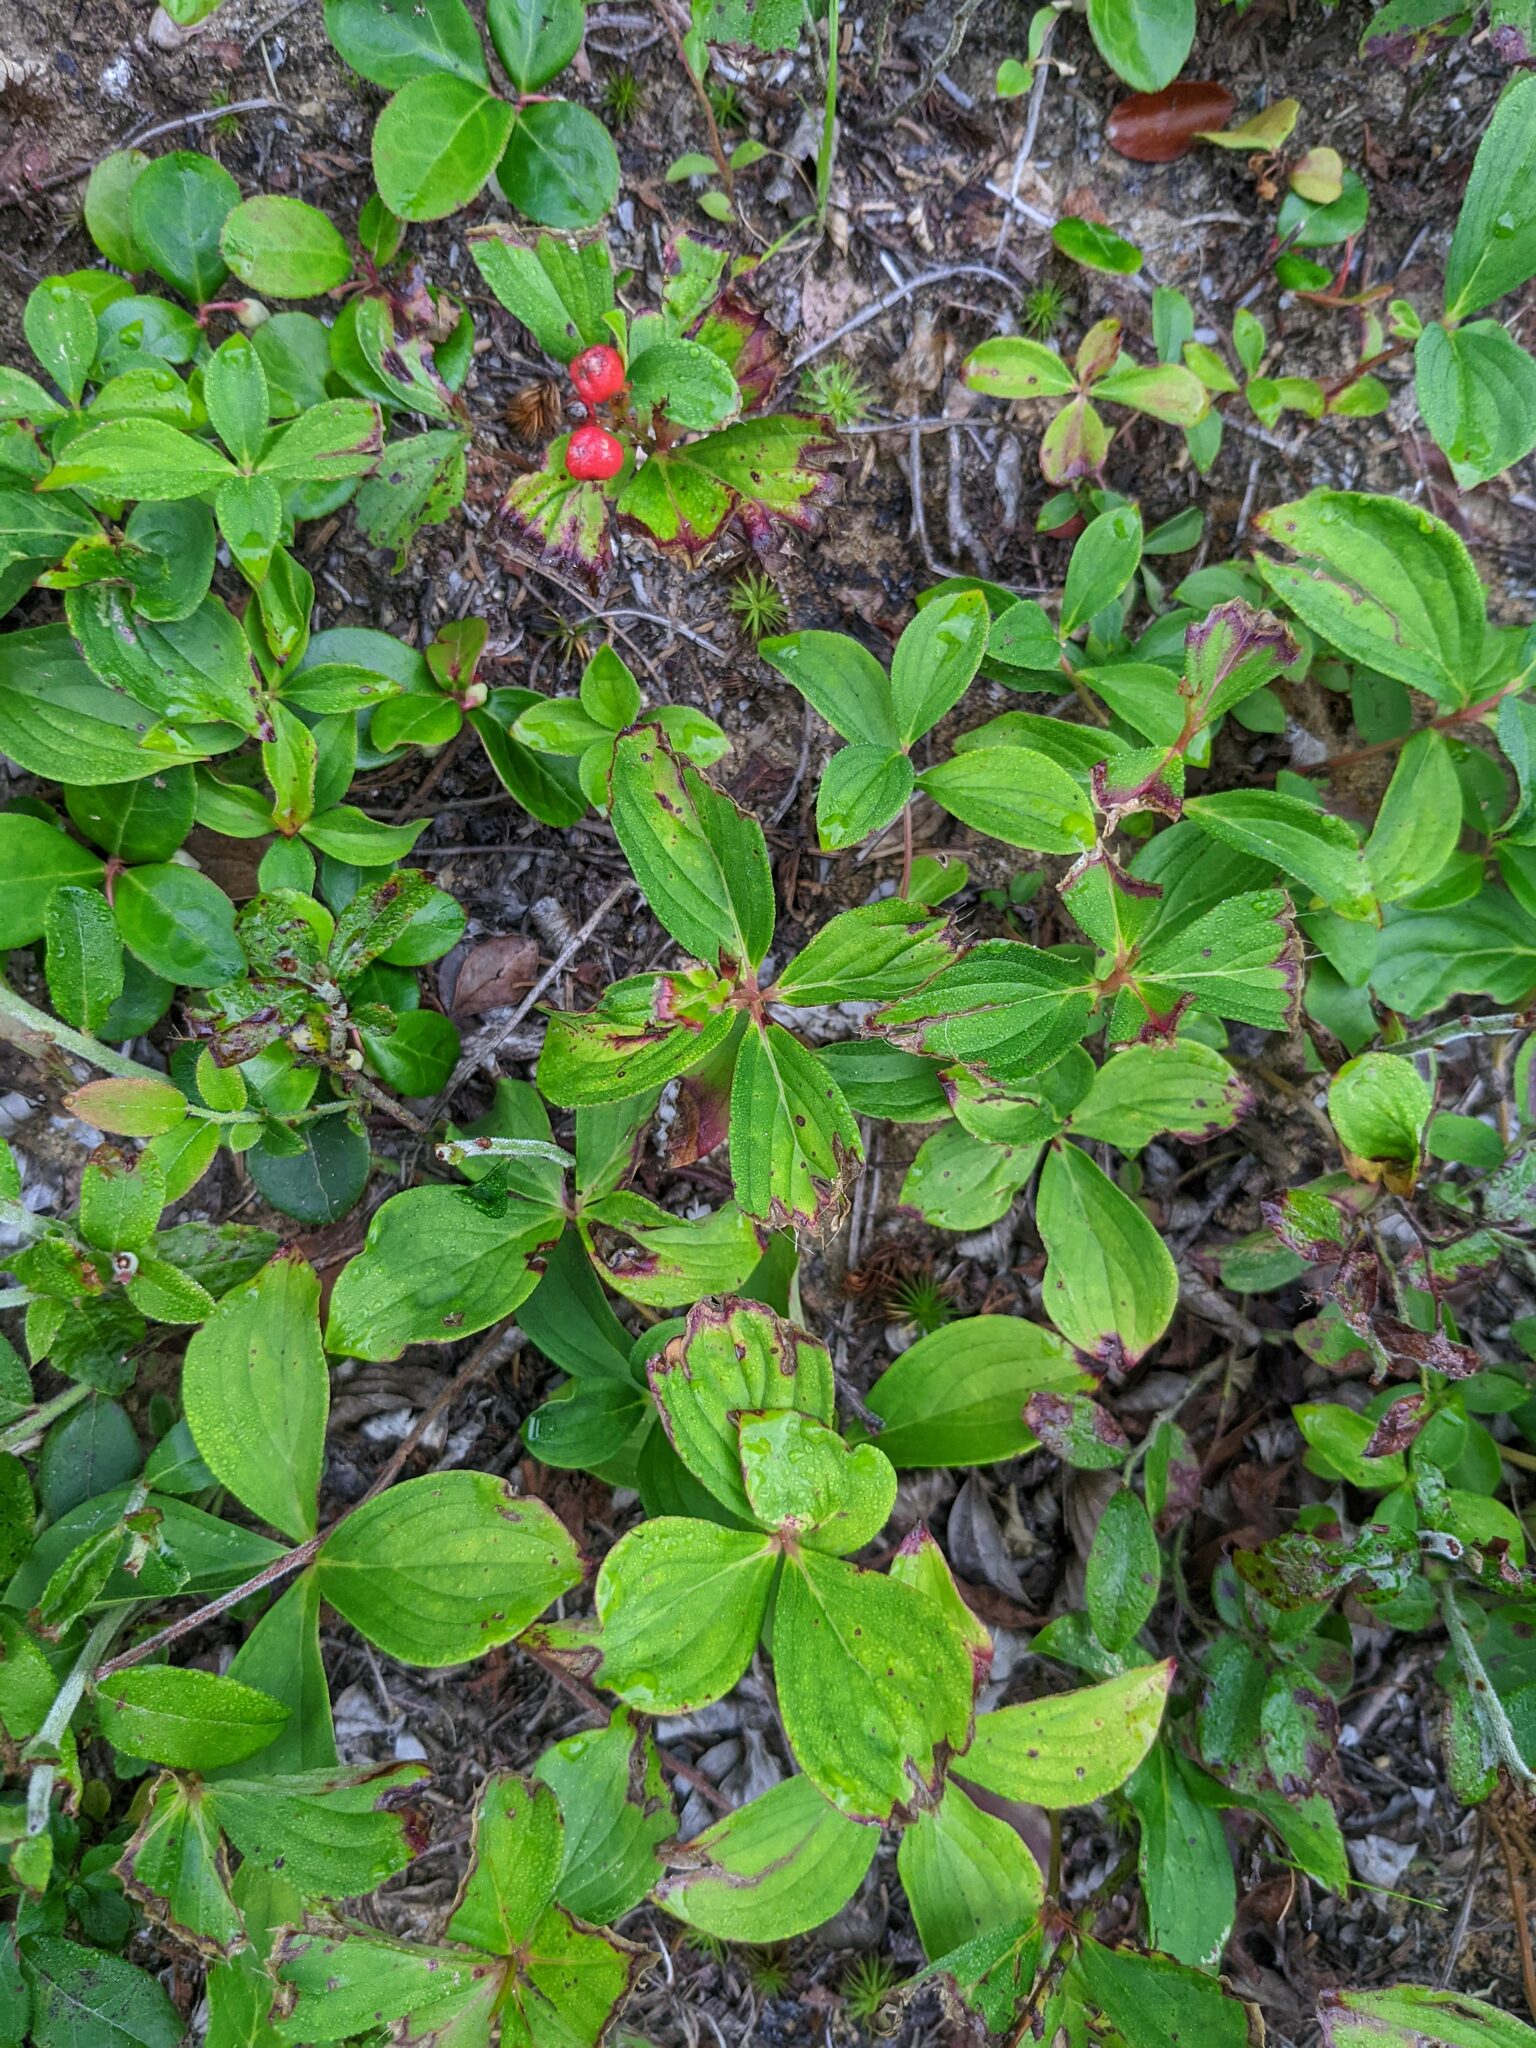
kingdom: Plantae
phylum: Tracheophyta
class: Magnoliopsida
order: Cornales
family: Cornaceae
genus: Cornus
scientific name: Cornus canadensis
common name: Creeping dogwood
